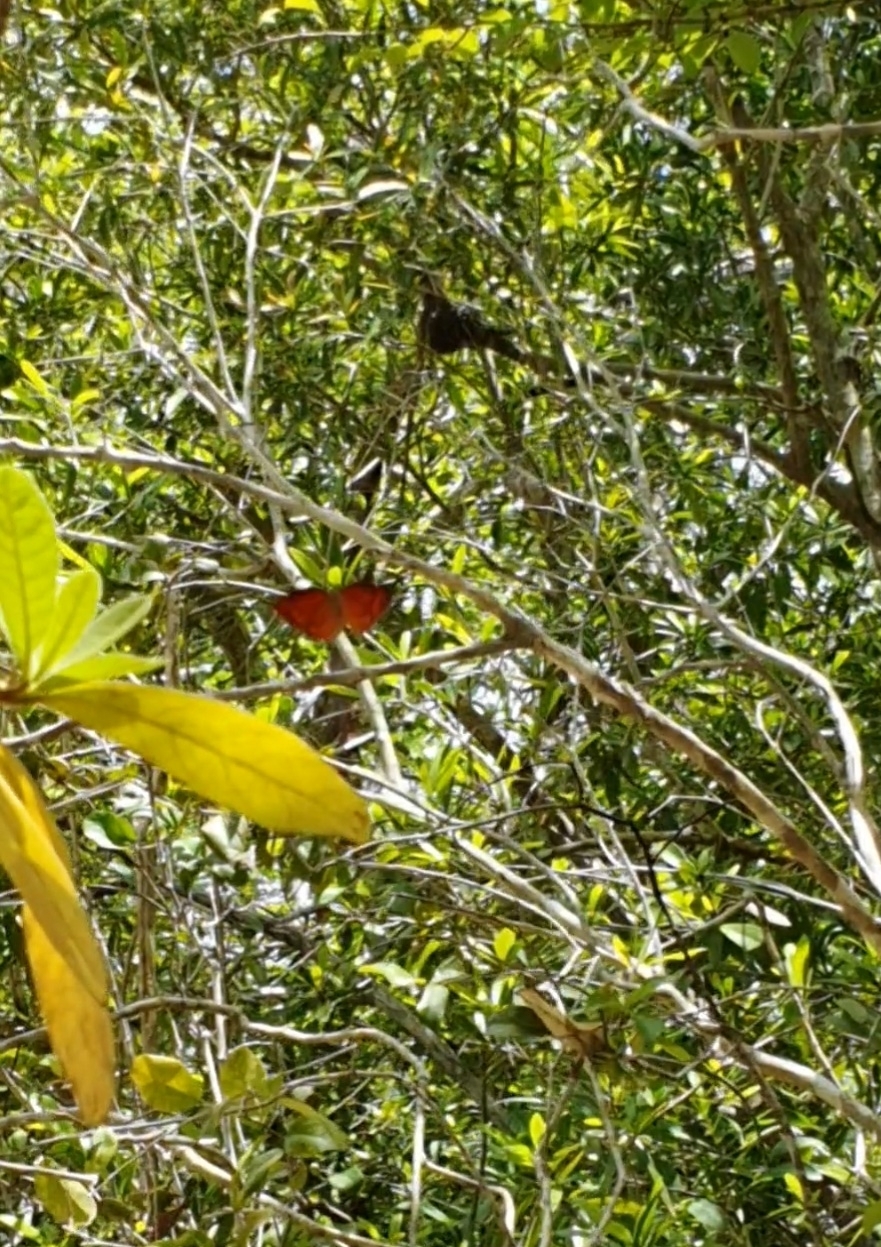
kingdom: Animalia
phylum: Arthropoda
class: Insecta
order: Lepidoptera
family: Nymphalidae
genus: Anaea
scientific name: Anaea troglodyta
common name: Florida leafwing
